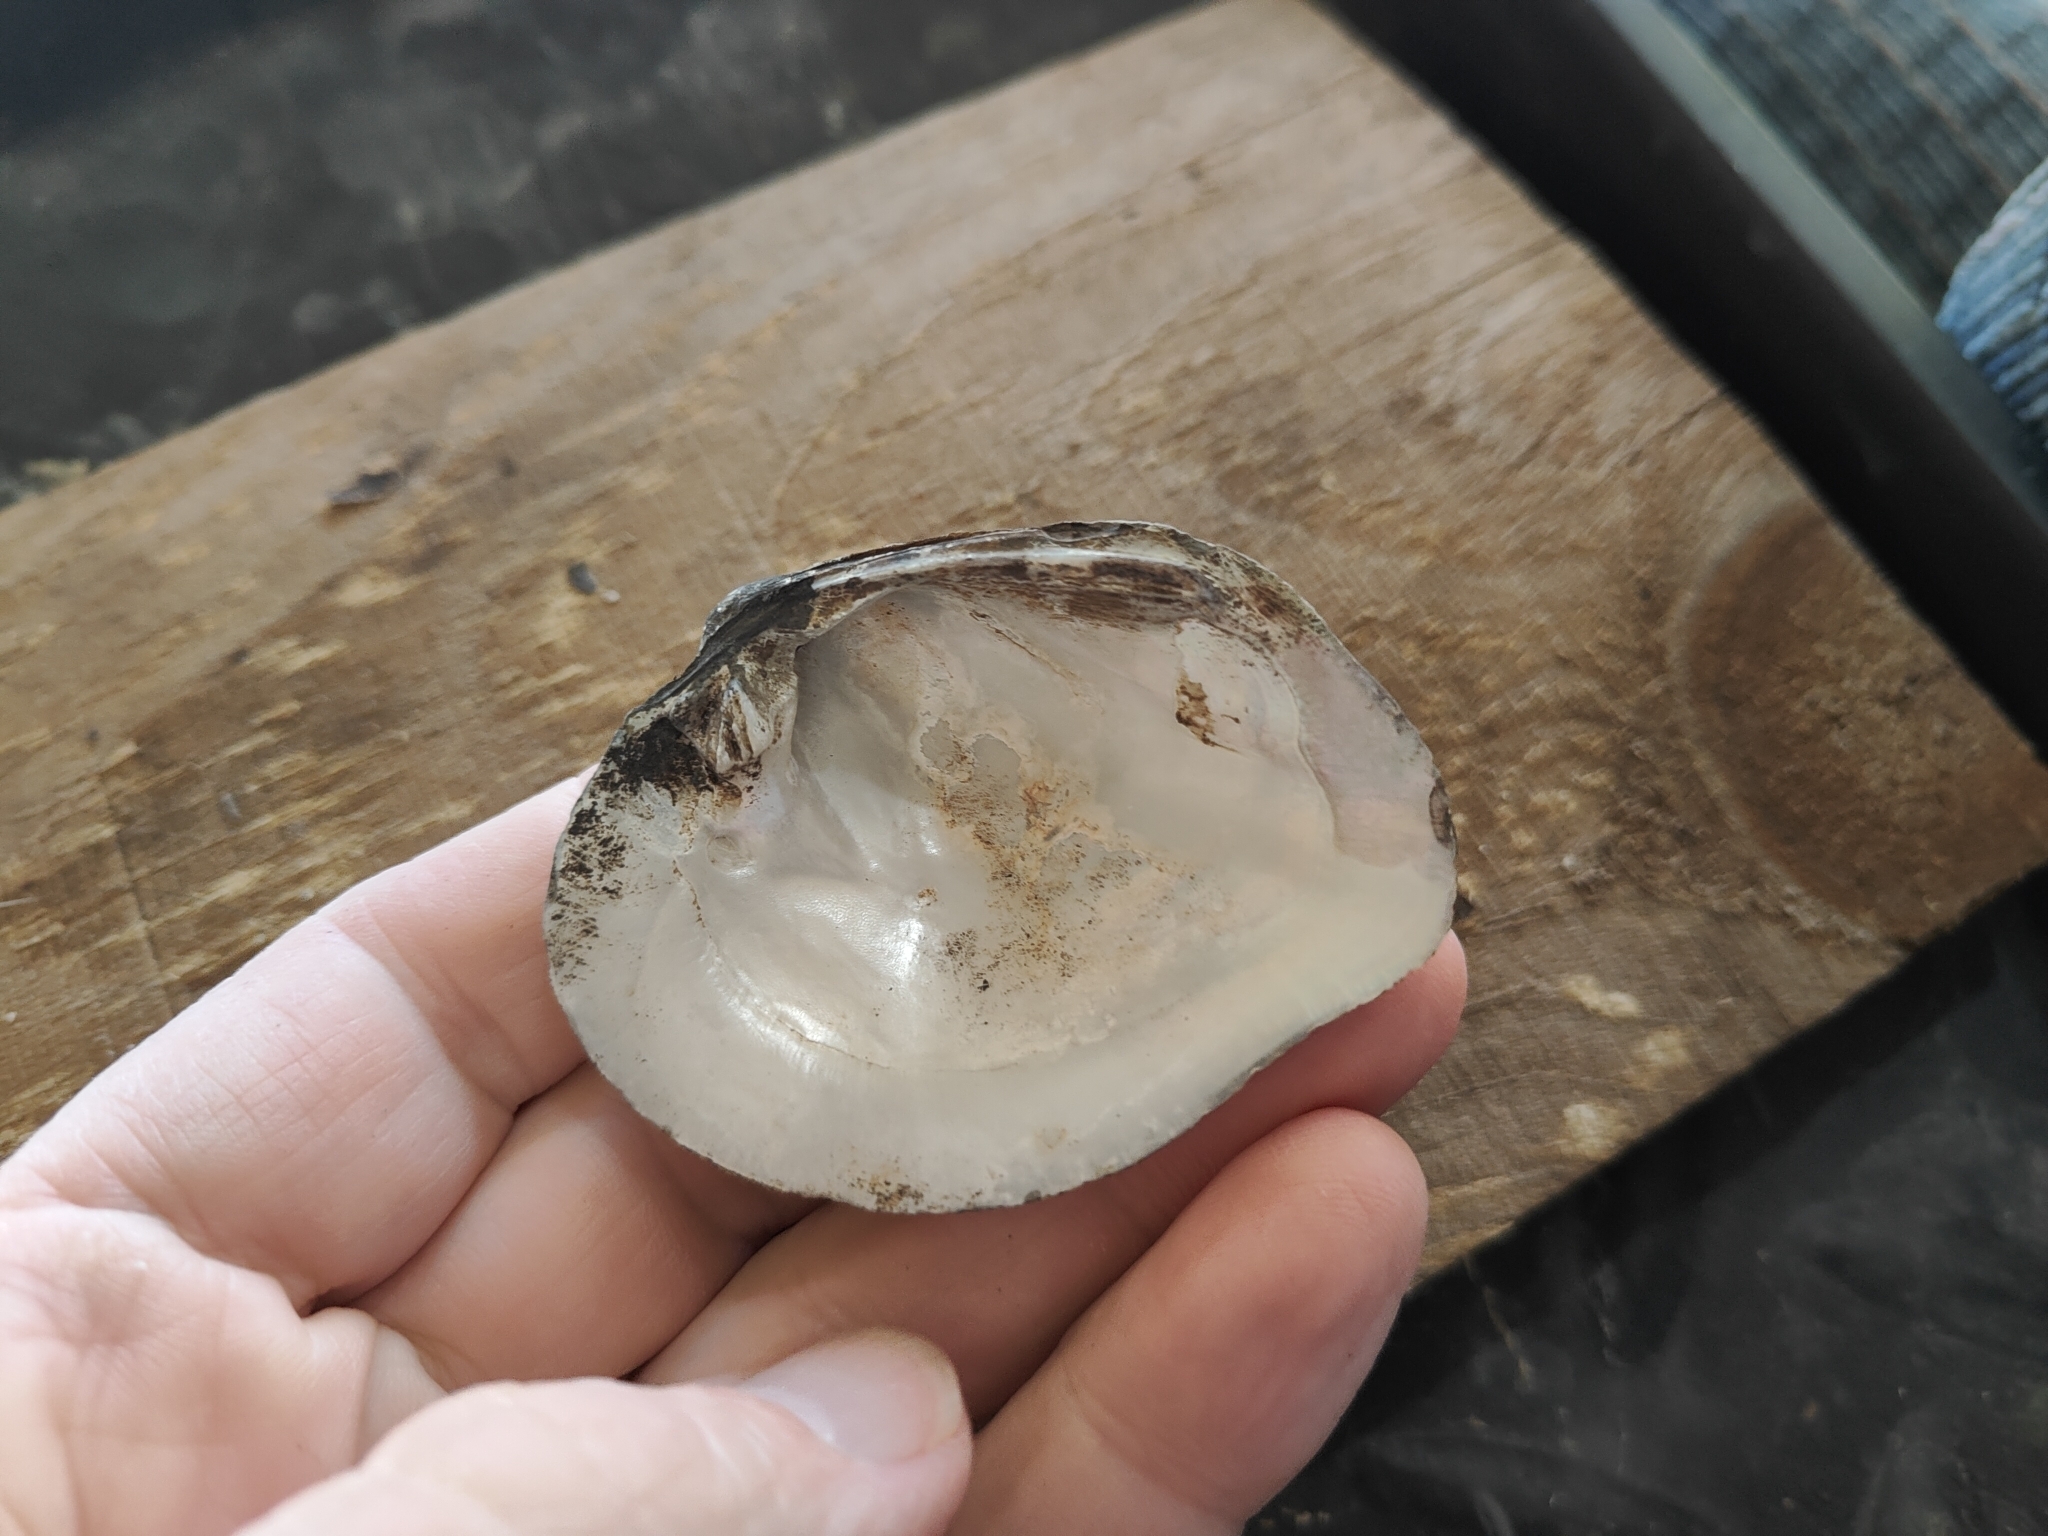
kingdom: Animalia
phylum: Mollusca
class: Bivalvia
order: Unionida
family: Unionidae
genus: Quadrula
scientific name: Quadrula quadrula
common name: Mapleleaf
